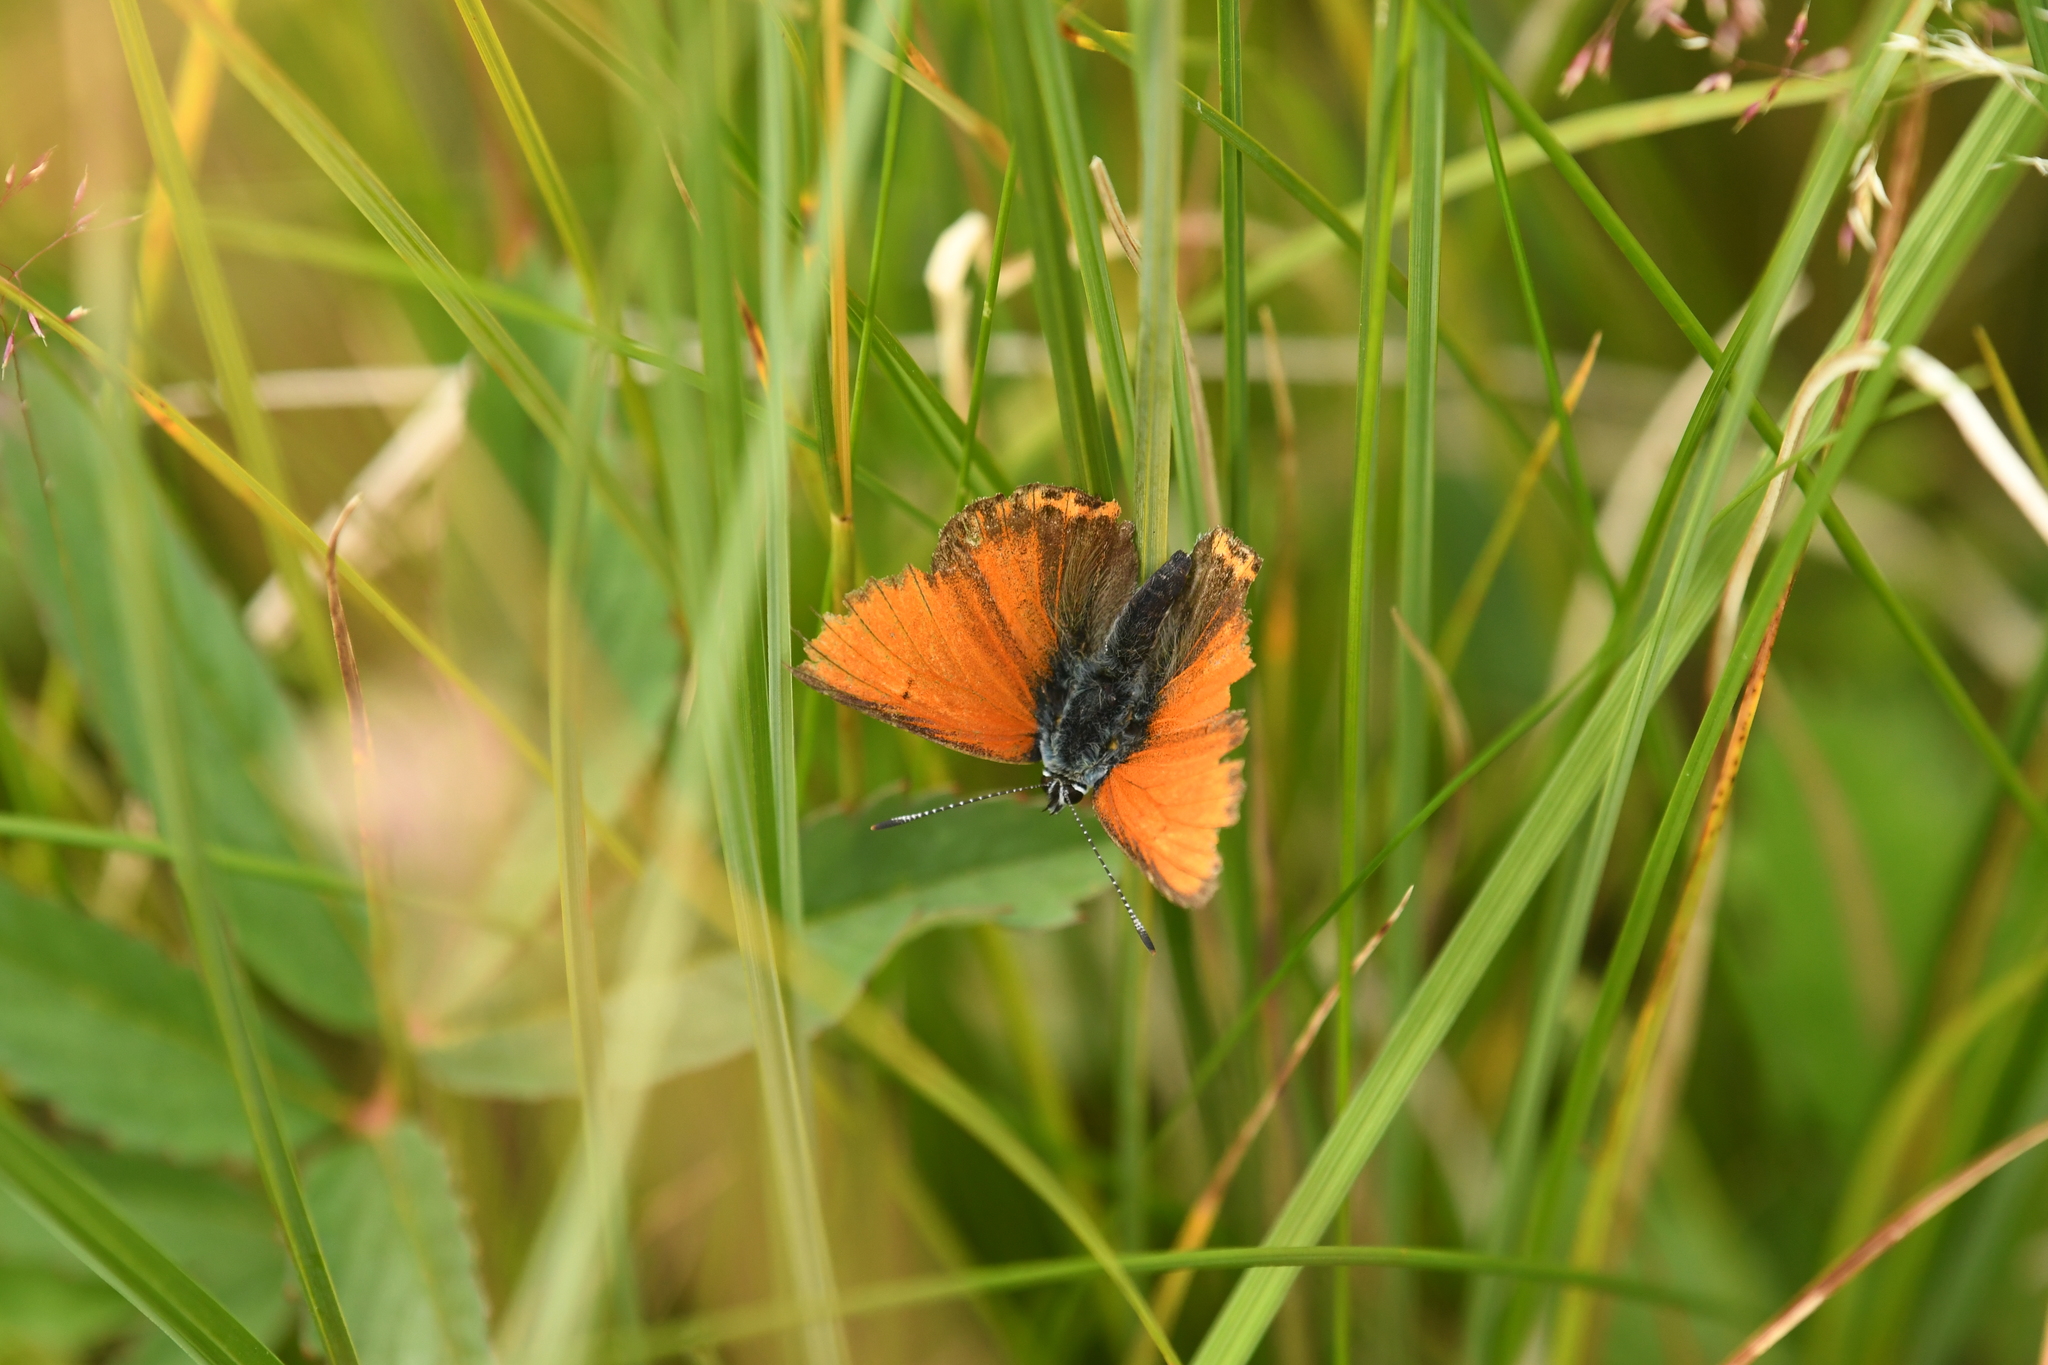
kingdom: Animalia
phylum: Arthropoda
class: Insecta
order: Lepidoptera
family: Lycaenidae
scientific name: Lycaenidae
